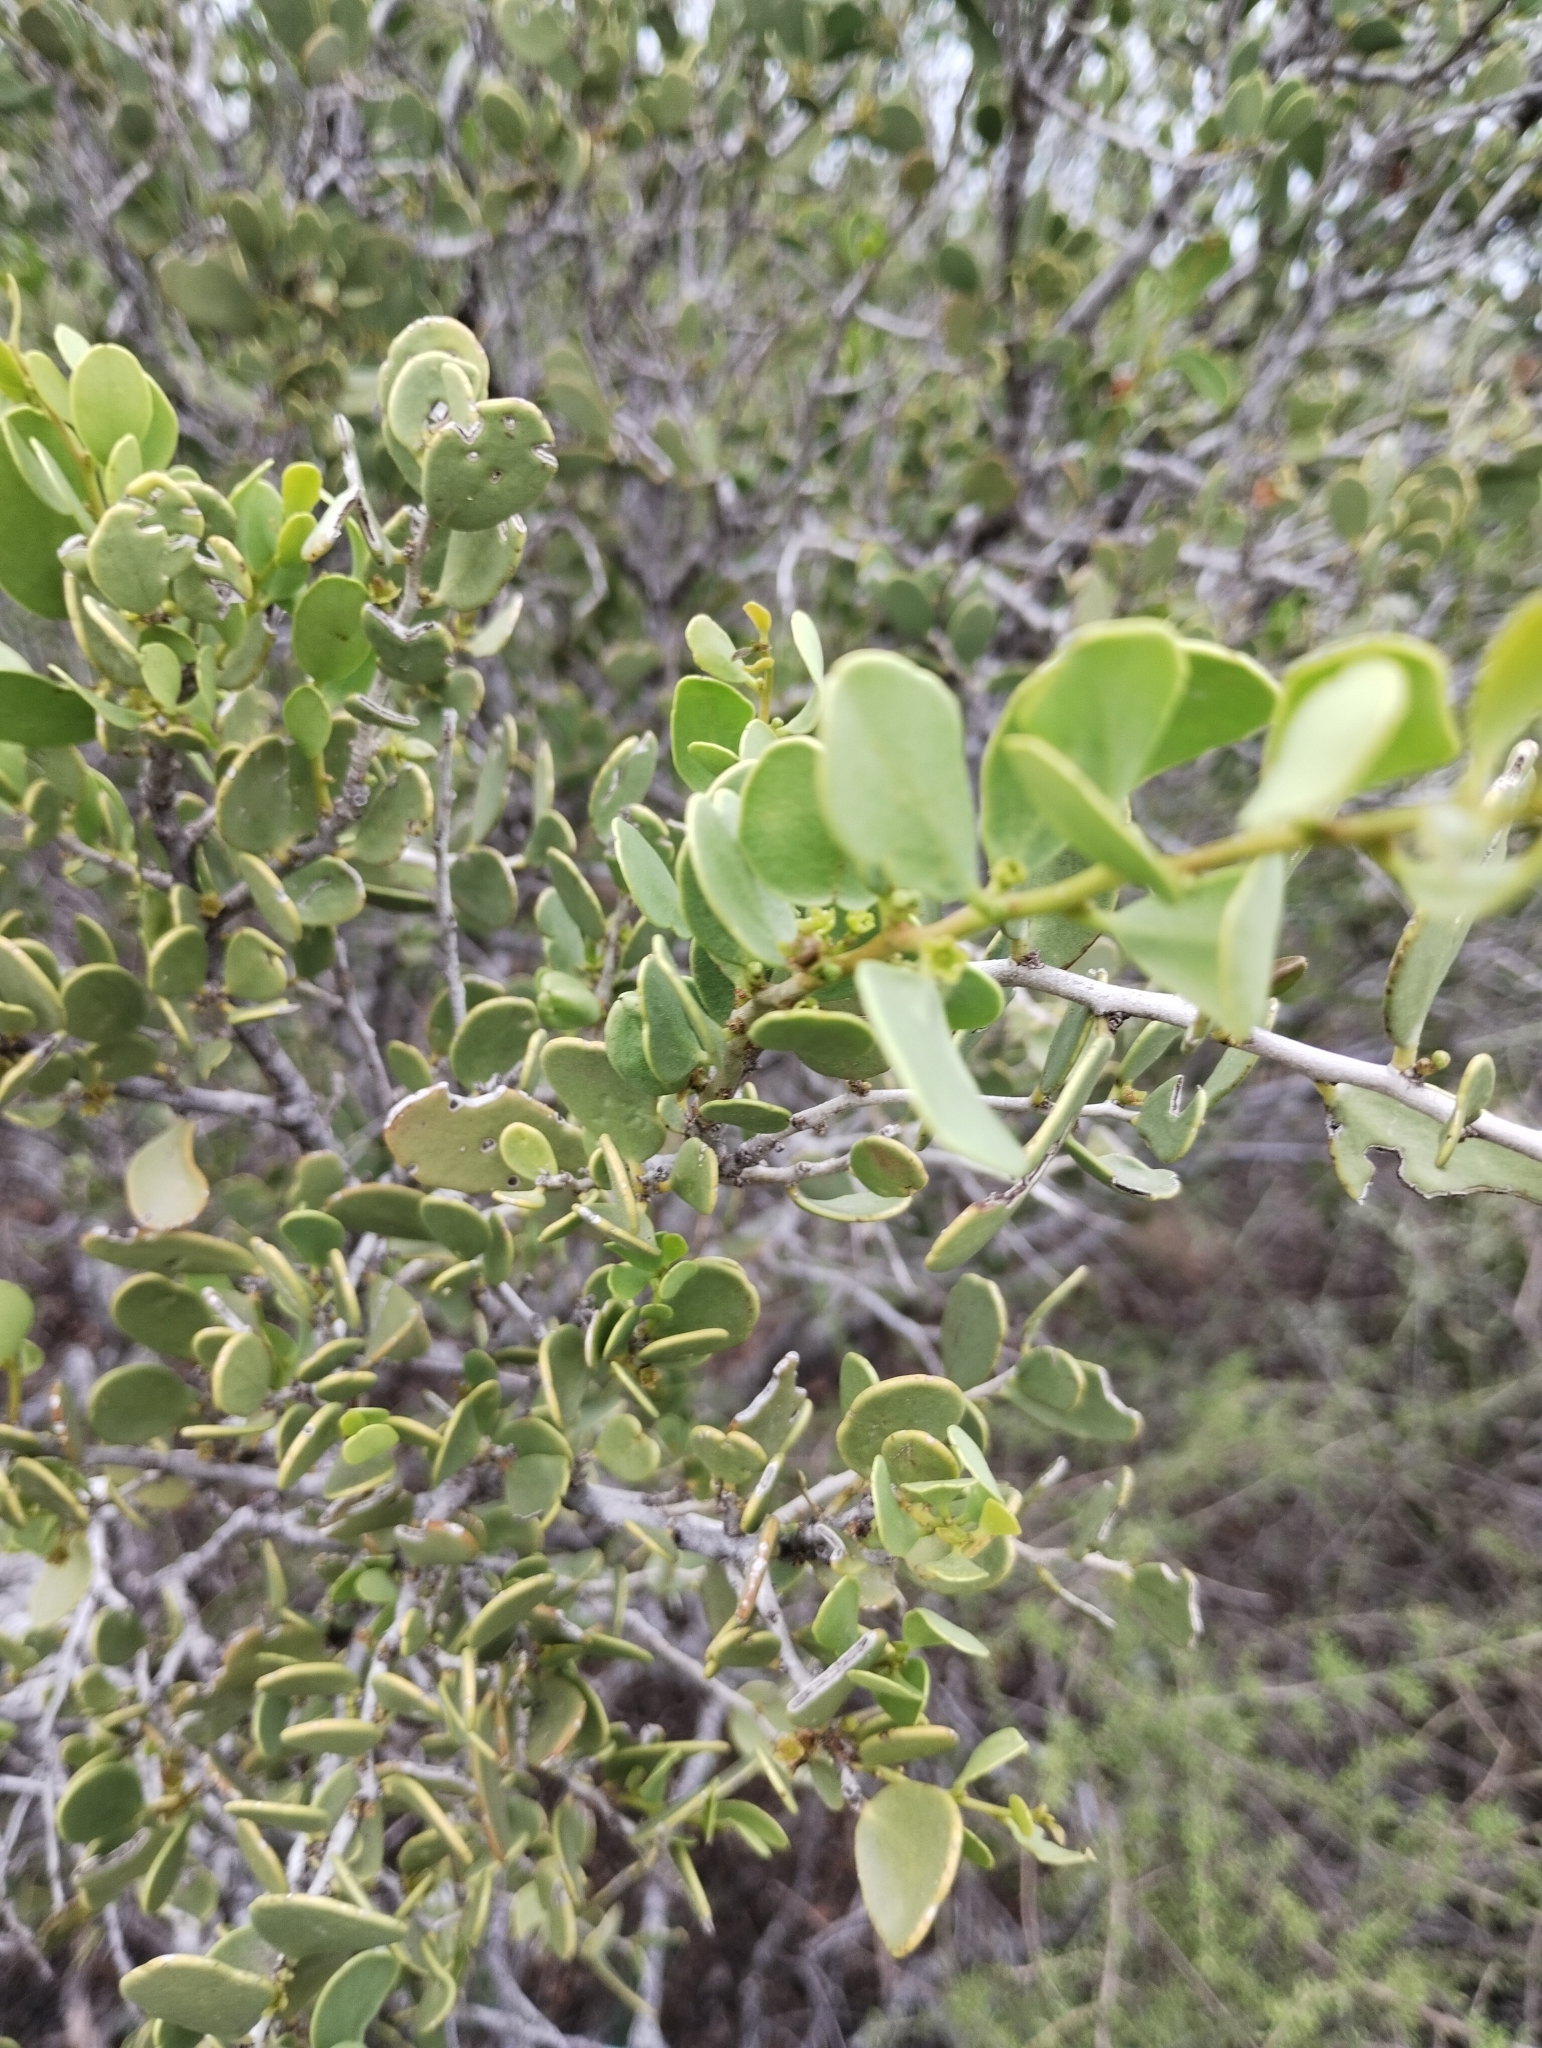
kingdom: Plantae
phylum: Tracheophyta
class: Magnoliopsida
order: Celastrales
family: Celastraceae
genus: Tricerma
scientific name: Tricerma vitis-idaeum
